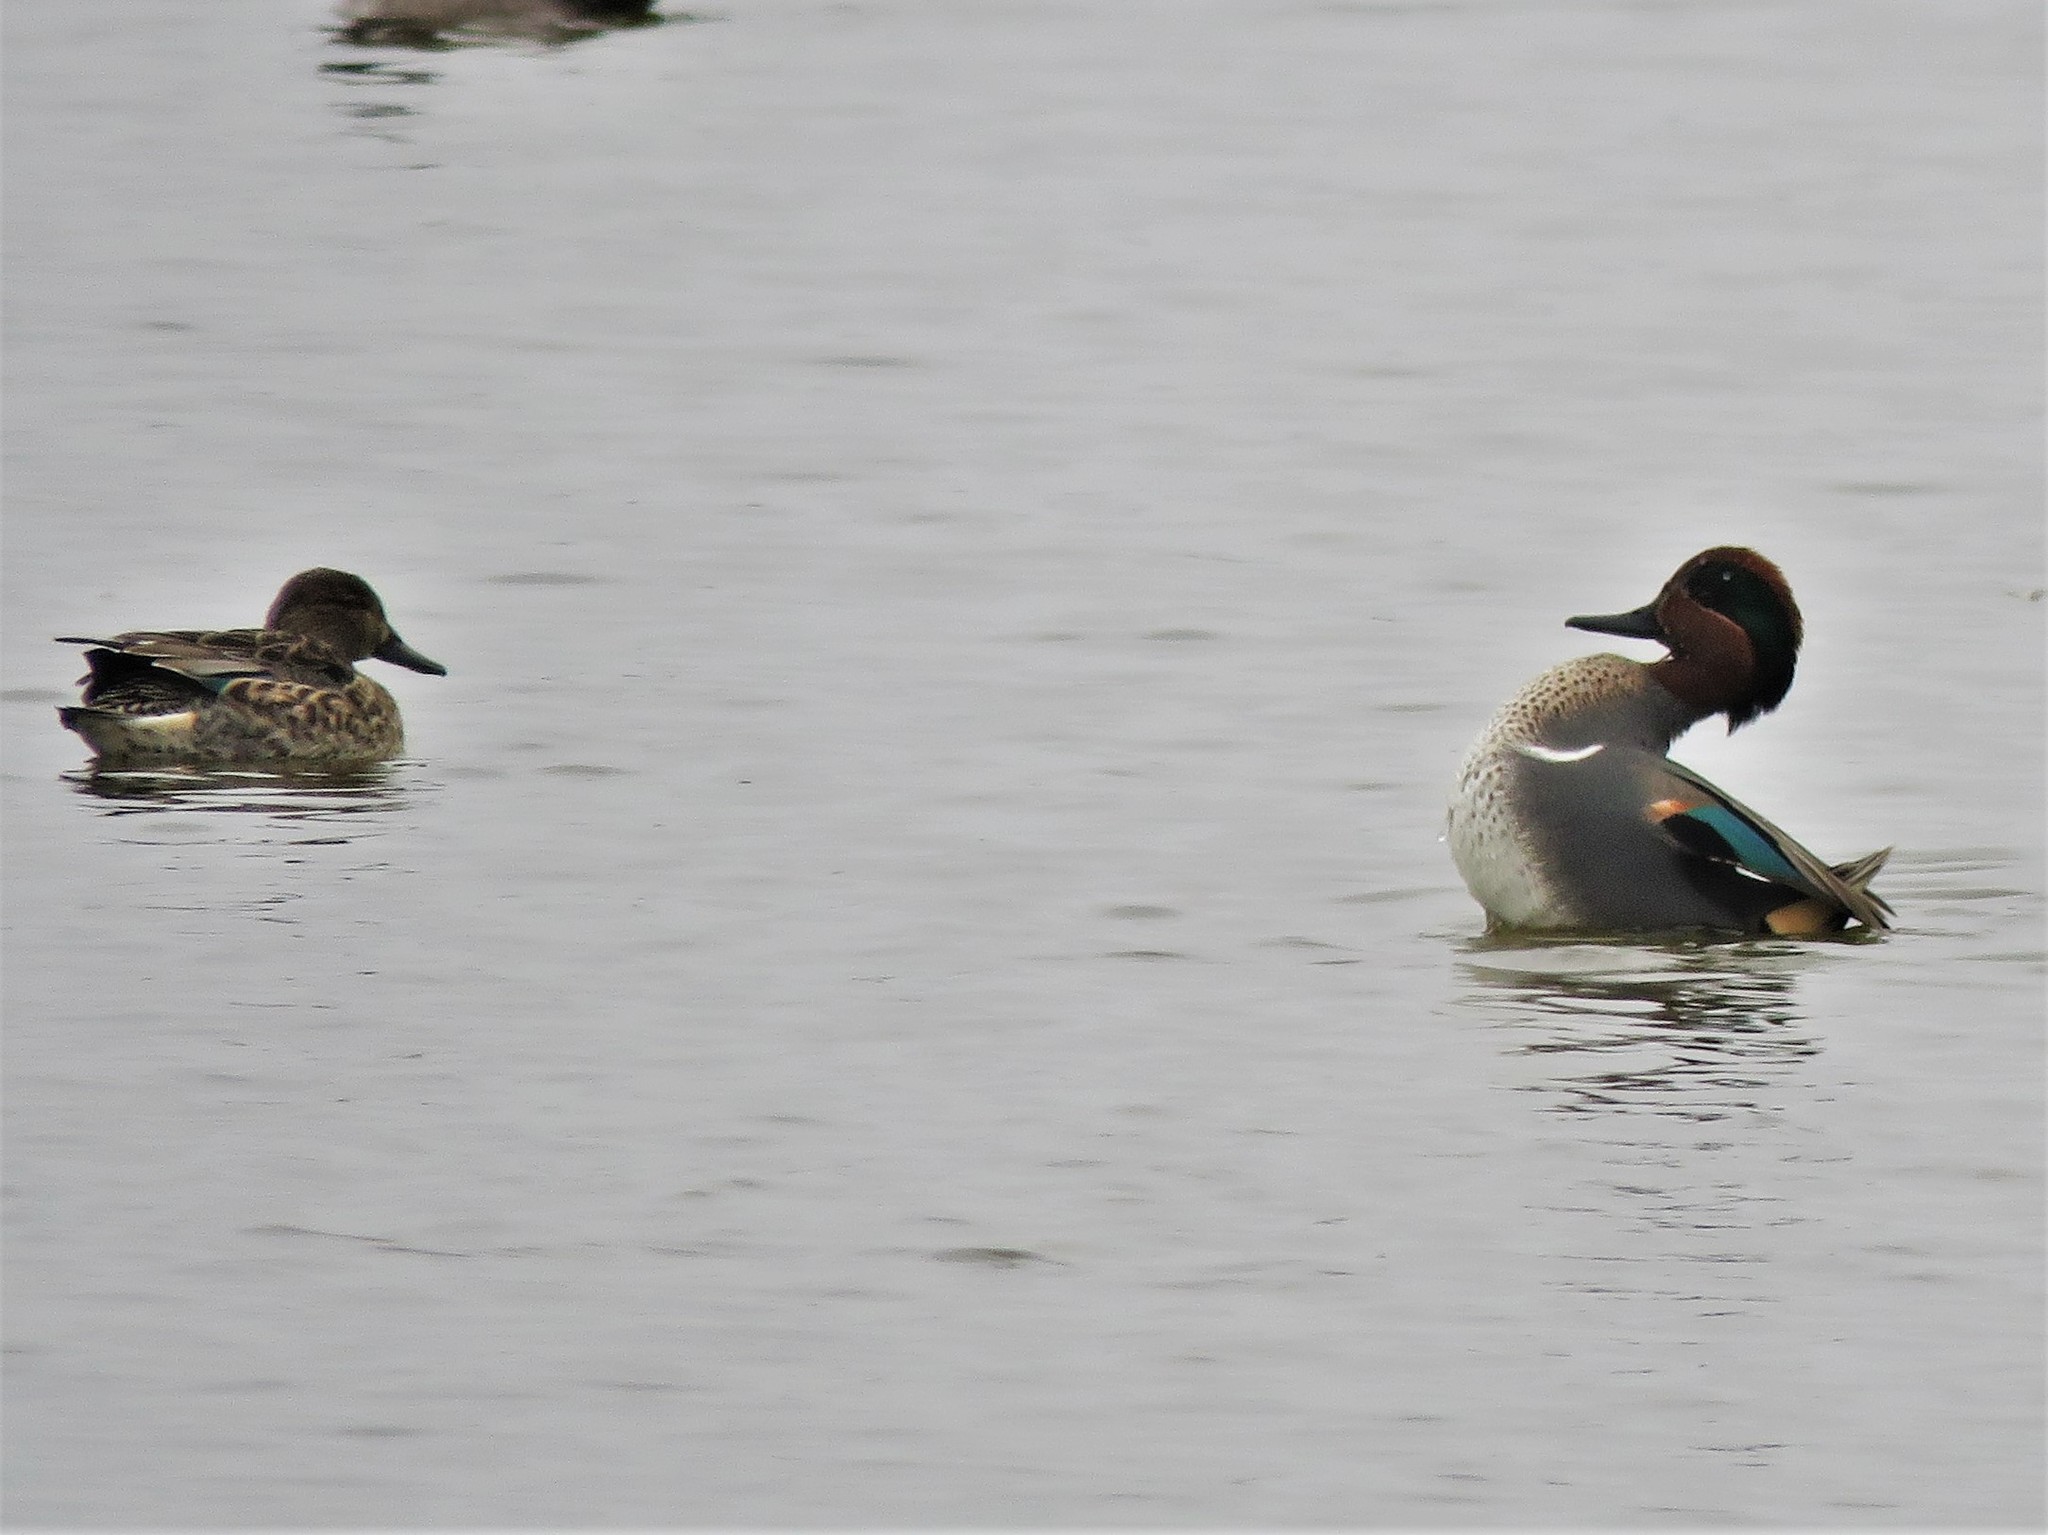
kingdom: Animalia
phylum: Chordata
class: Aves
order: Anseriformes
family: Anatidae
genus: Anas
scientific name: Anas crecca
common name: Eurasian teal
